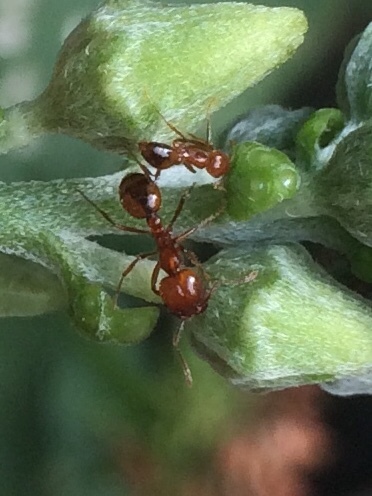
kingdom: Animalia
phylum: Arthropoda
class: Insecta
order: Hymenoptera
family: Formicidae
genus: Solenopsis
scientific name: Solenopsis geminata
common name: Tropical fire ant
